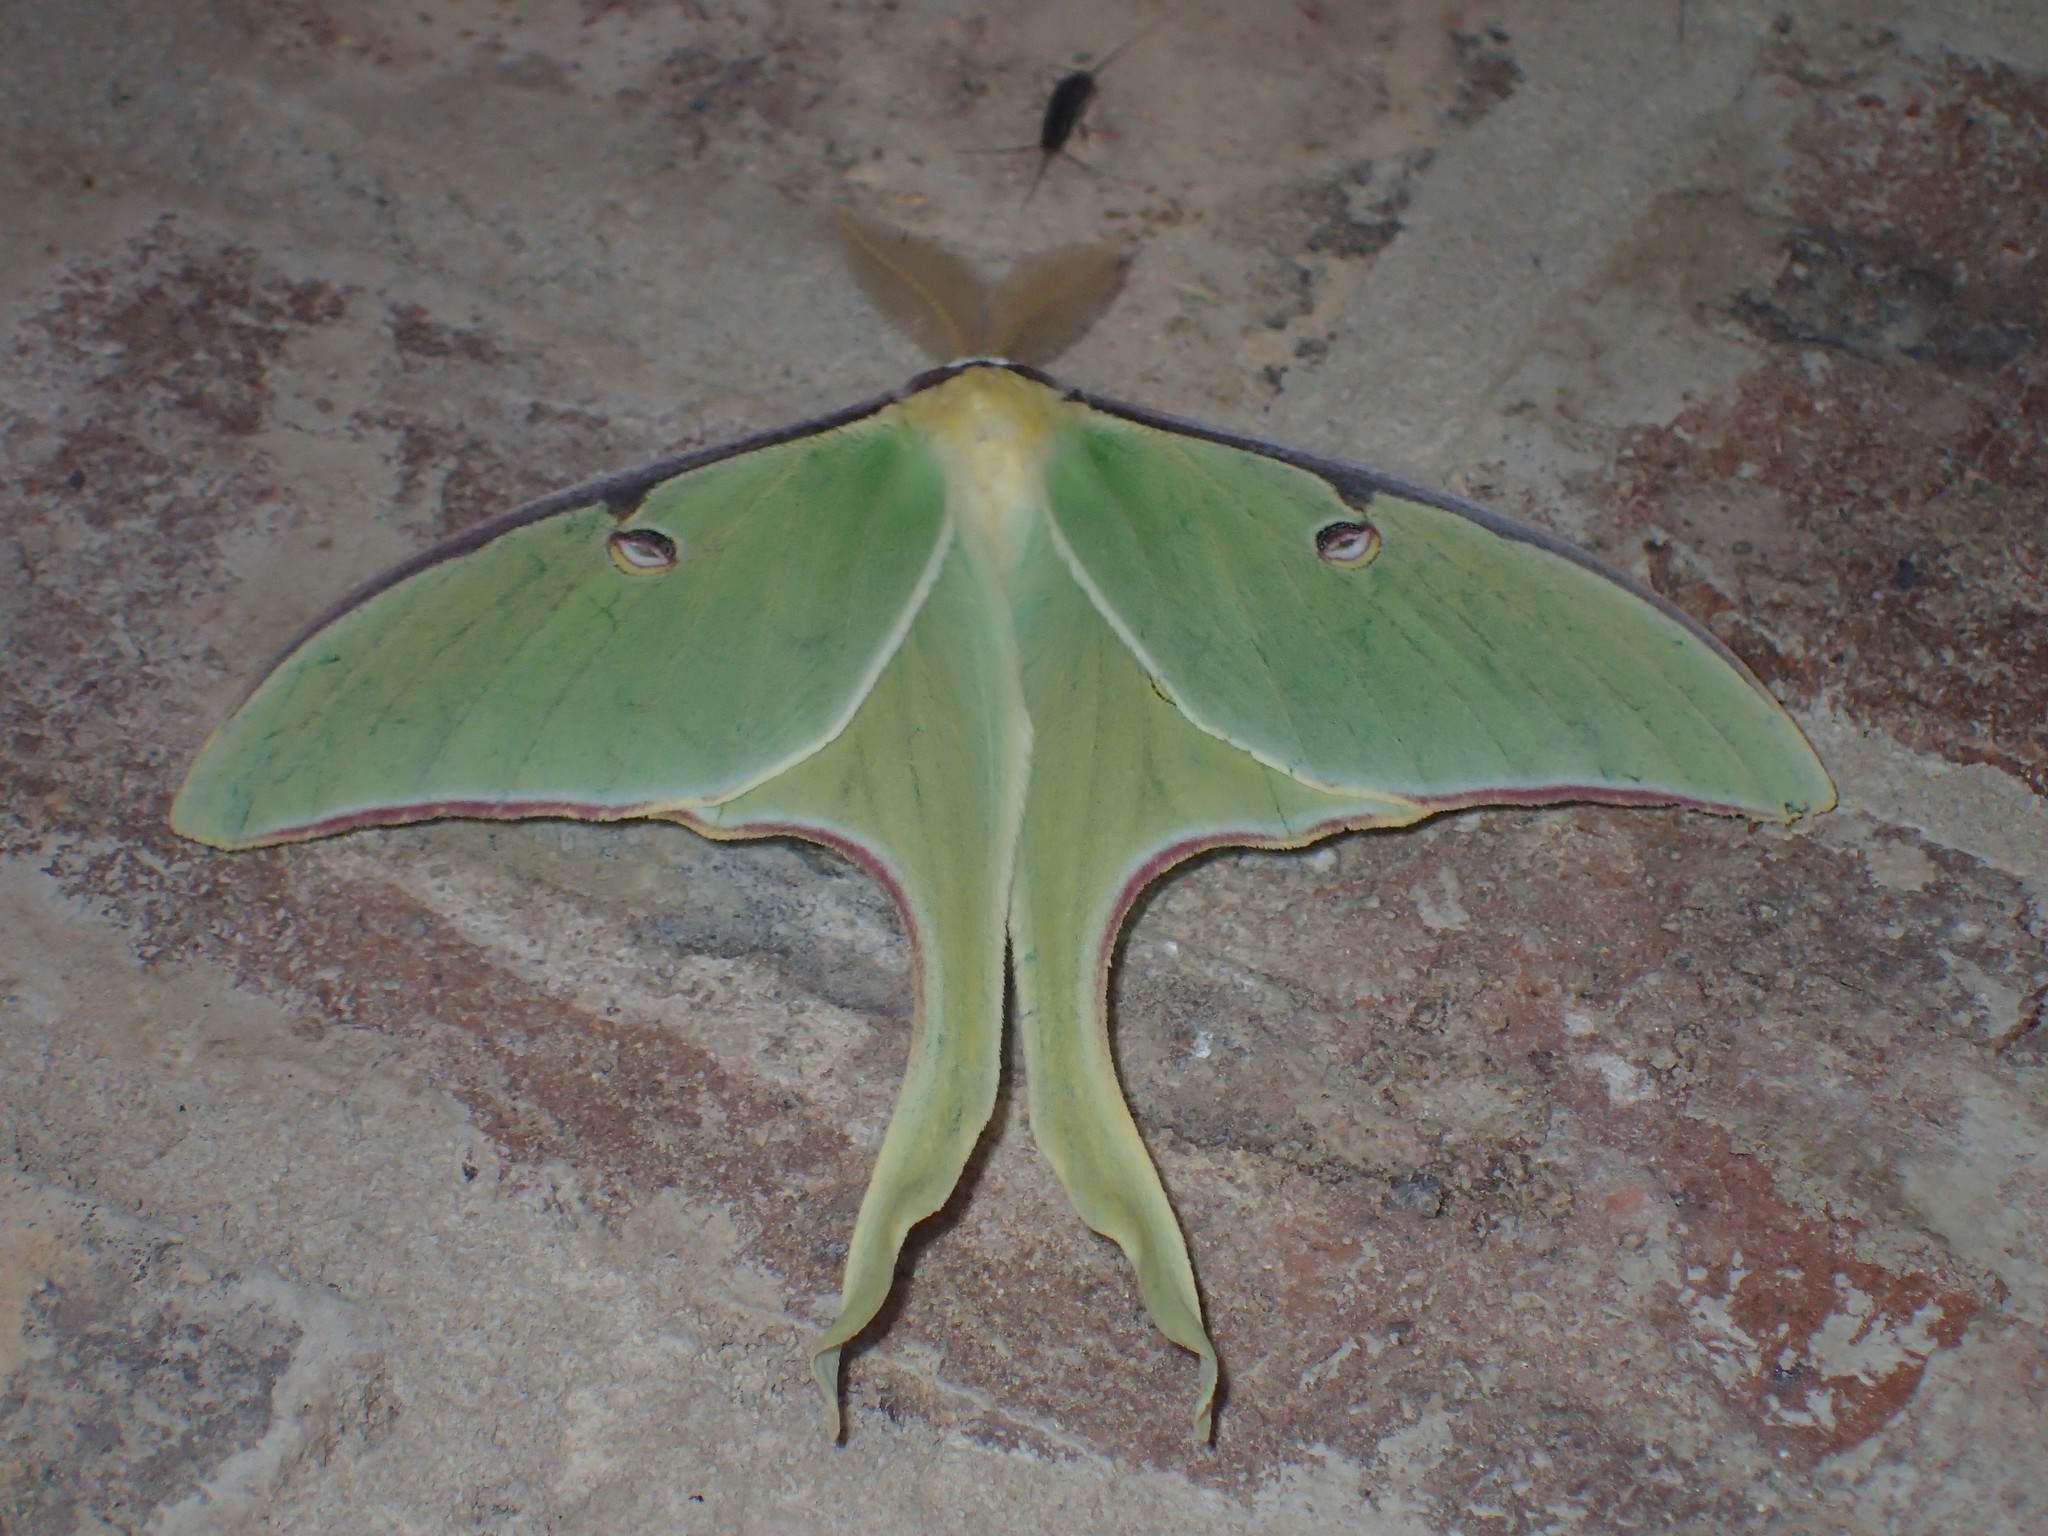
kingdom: Animalia
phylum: Arthropoda
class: Insecta
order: Lepidoptera
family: Saturniidae
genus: Actias
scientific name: Actias luna
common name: Luna moth
